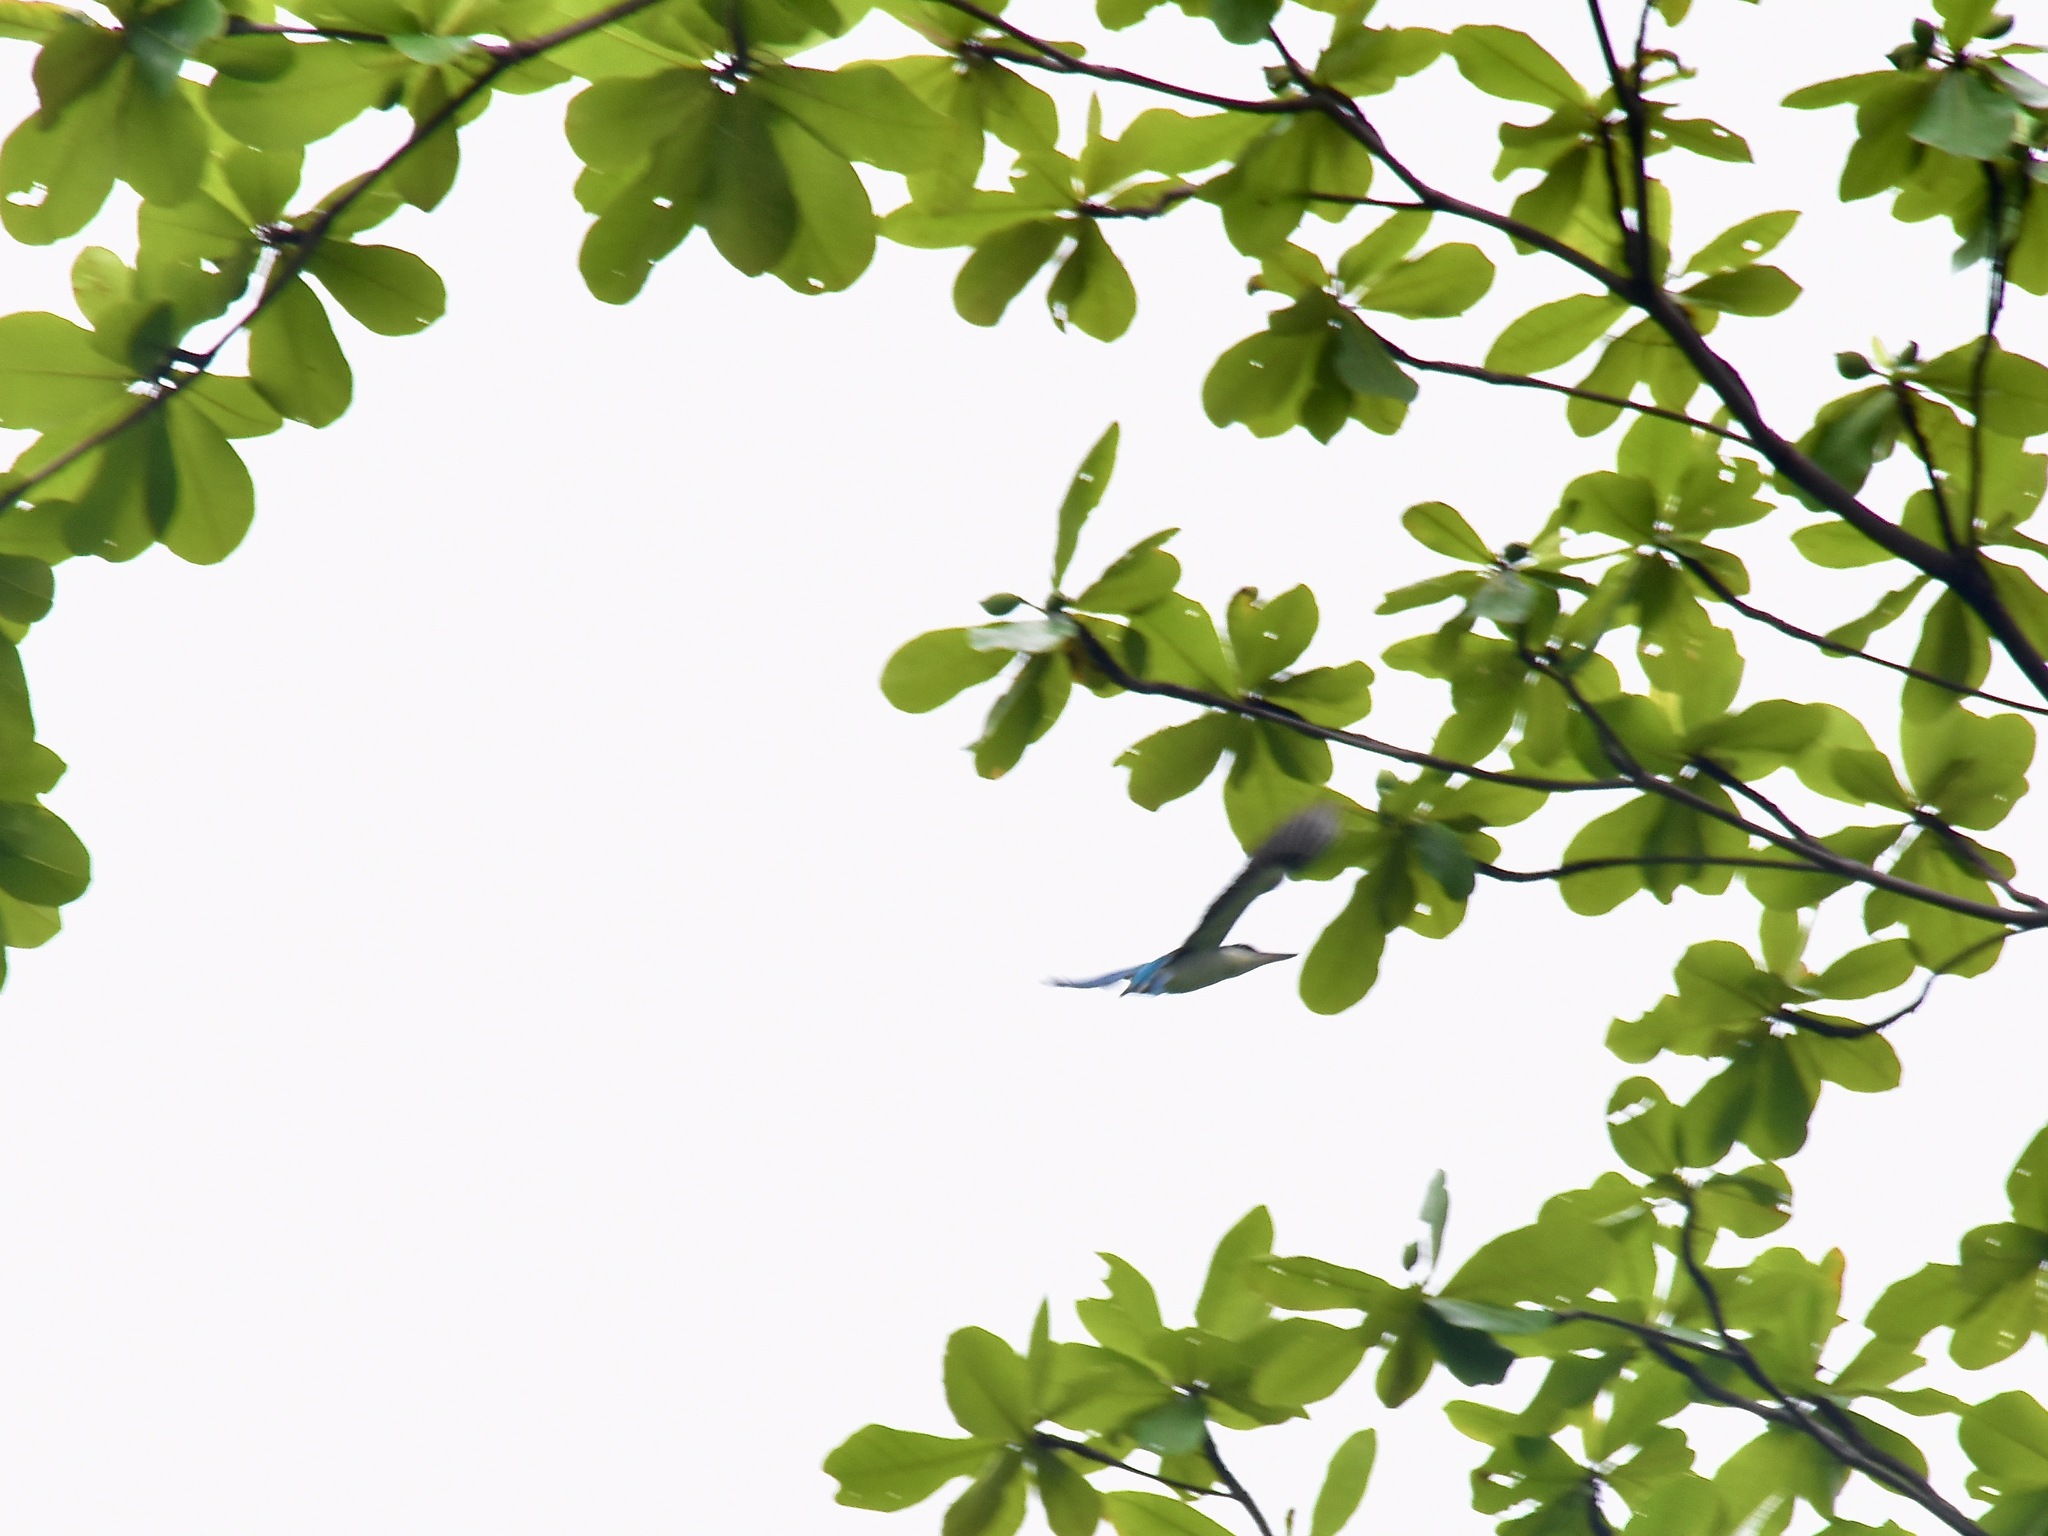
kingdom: Animalia
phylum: Chordata
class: Aves
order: Coraciiformes
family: Alcedinidae
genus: Todiramphus
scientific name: Todiramphus chloris
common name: Collared kingfisher
